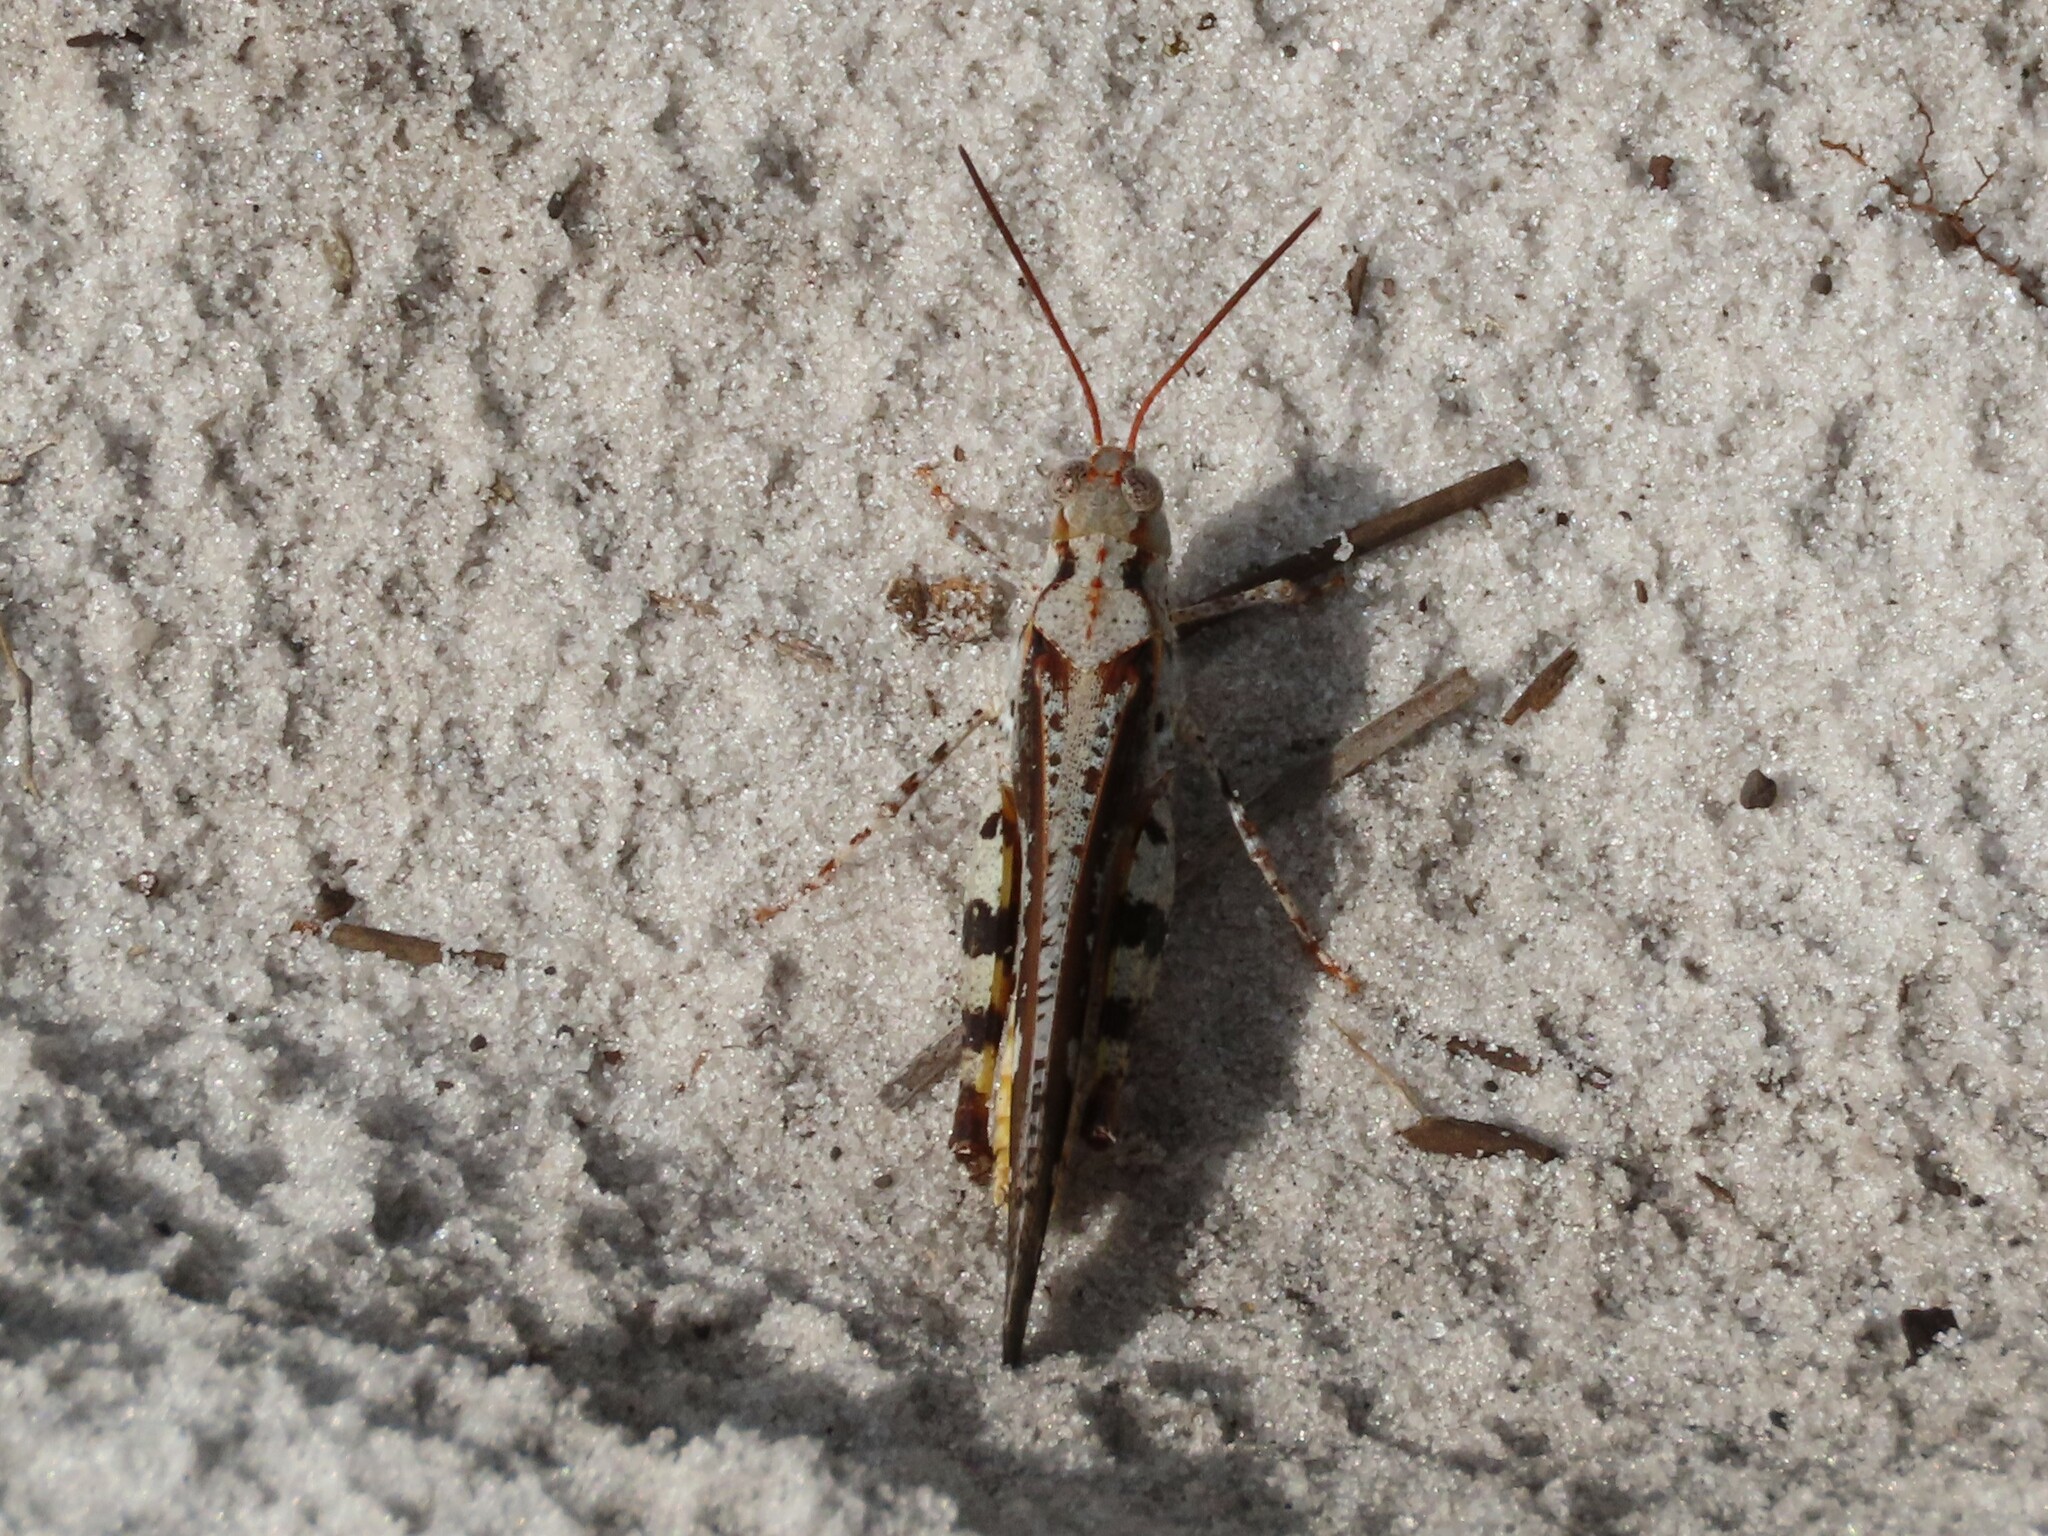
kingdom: Animalia
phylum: Arthropoda
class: Insecta
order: Orthoptera
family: Acrididae
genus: Spharagemon
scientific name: Spharagemon marmoratum
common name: Marbled grasshopper
